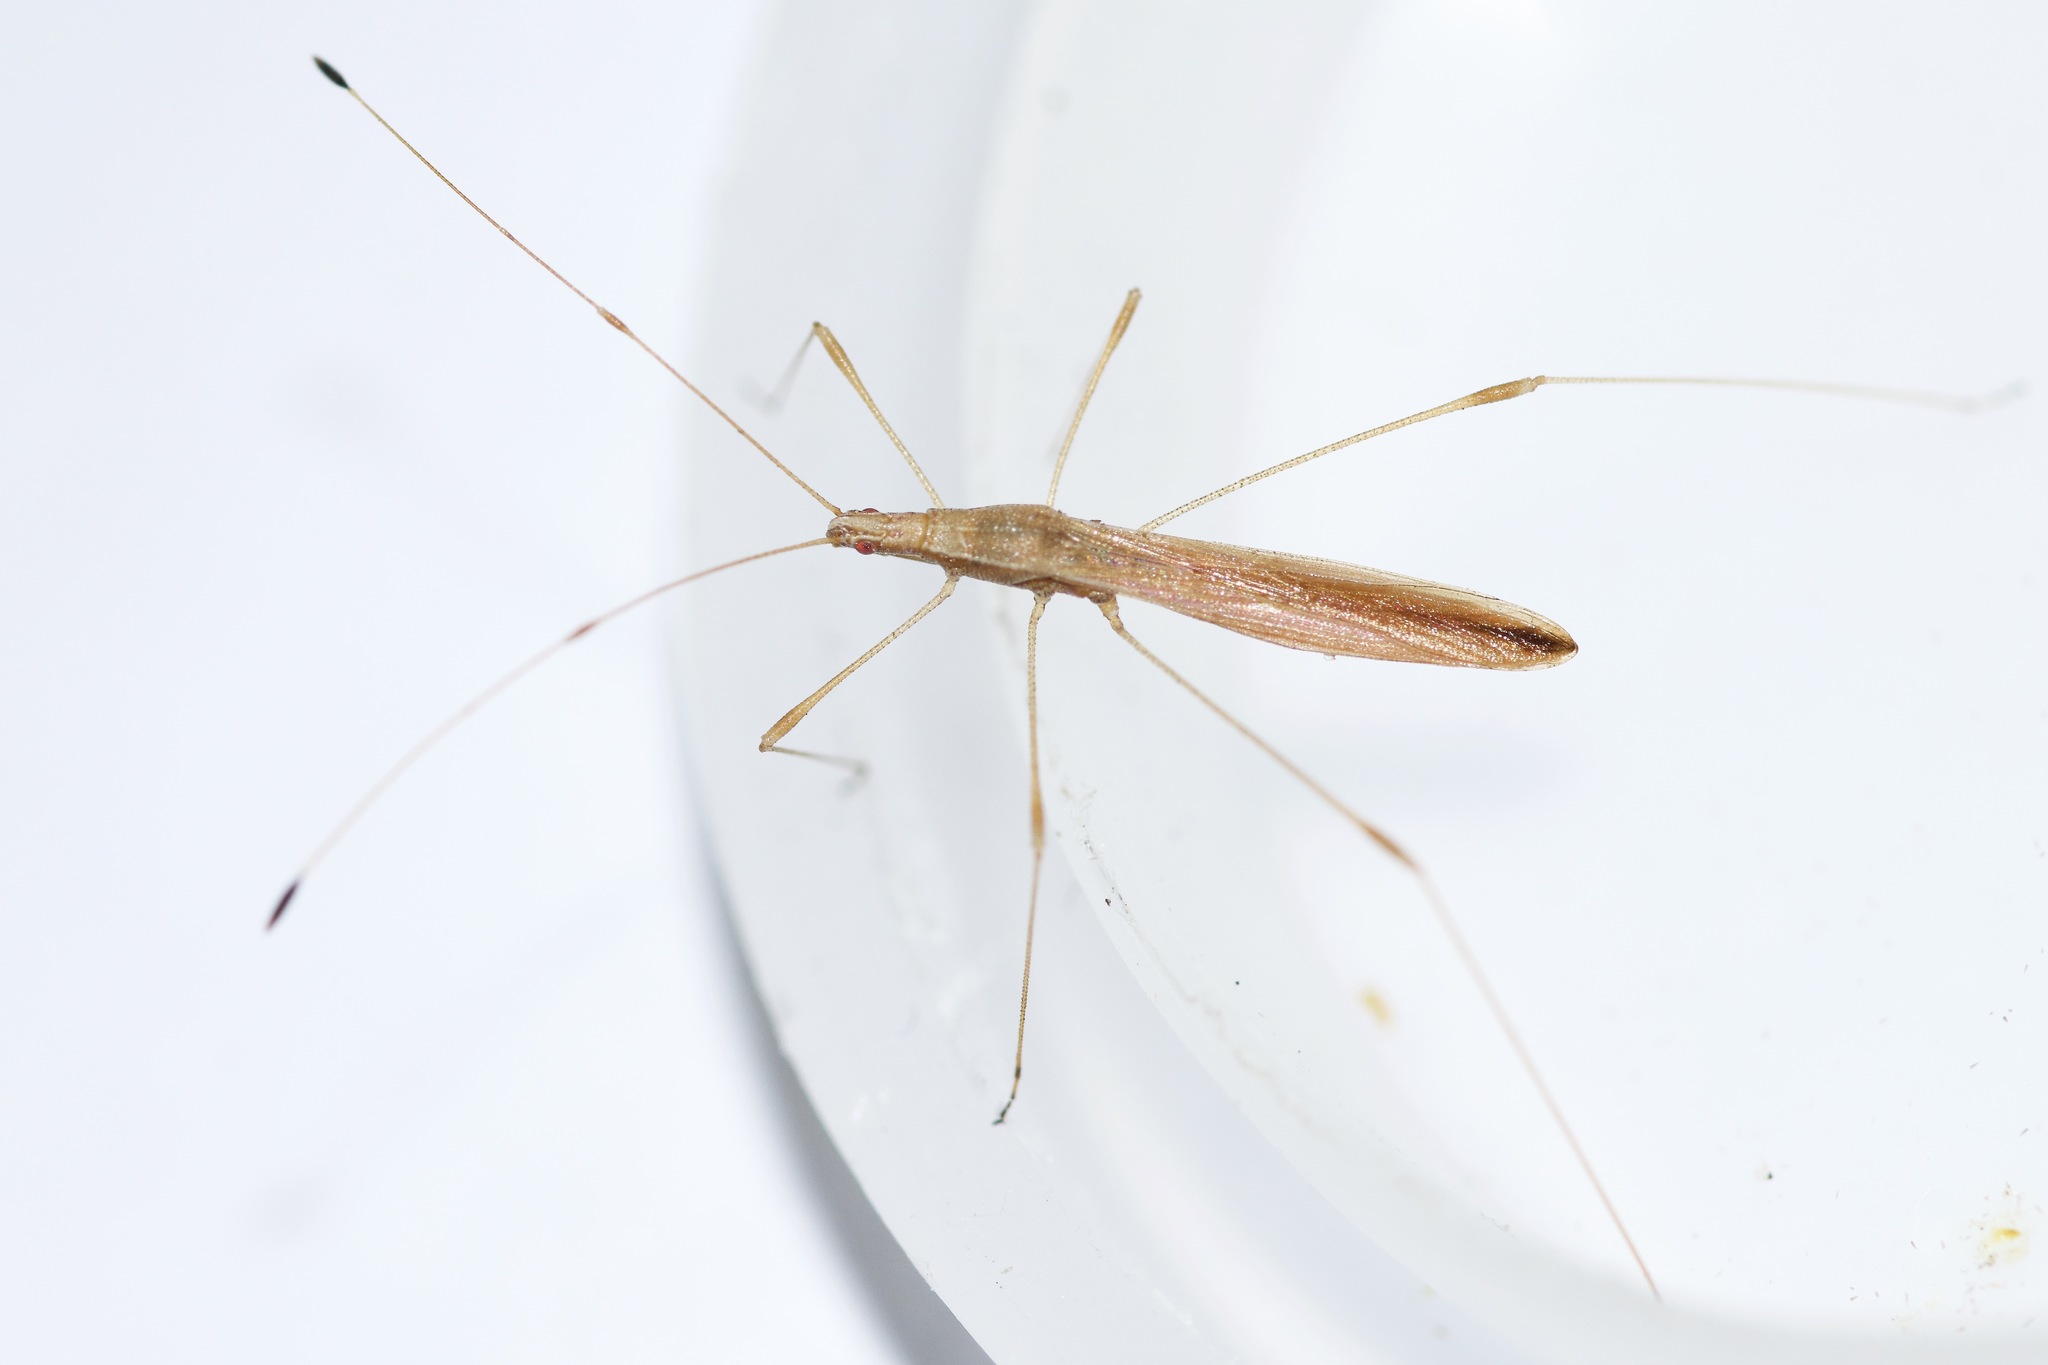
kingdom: Animalia
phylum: Arthropoda
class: Insecta
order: Hemiptera
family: Berytidae
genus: Neoneides
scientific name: Neoneides muticus
